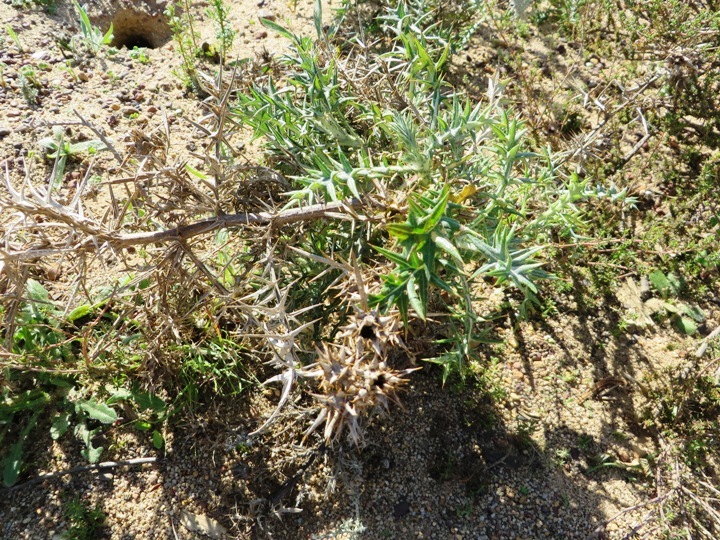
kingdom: Plantae
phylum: Tracheophyta
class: Magnoliopsida
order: Asterales
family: Asteraceae
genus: Berkheya
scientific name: Berkheya rigida
